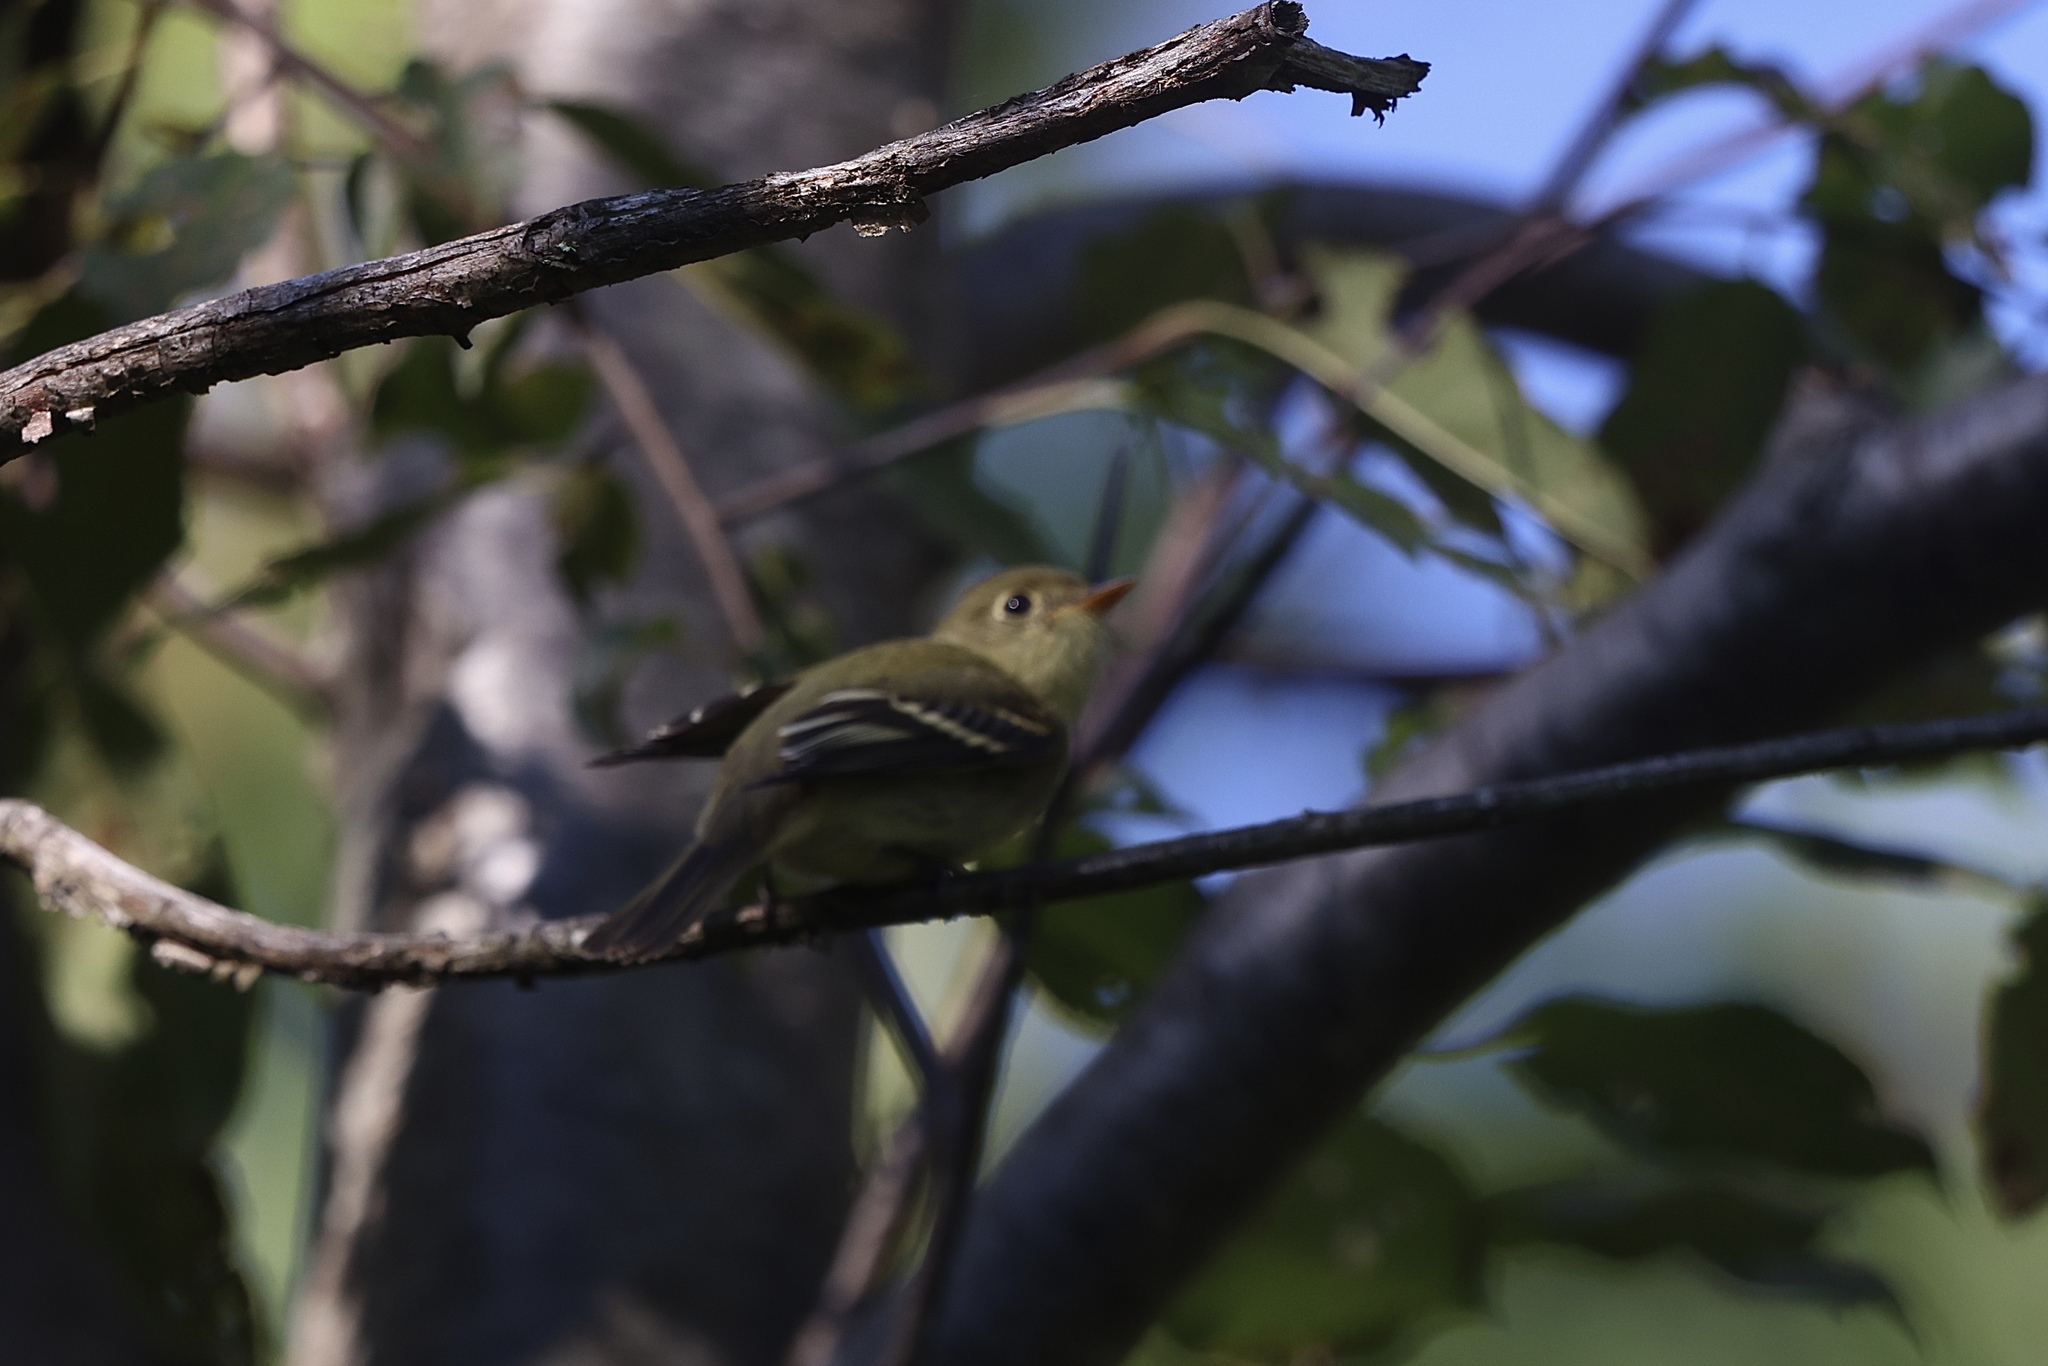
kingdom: Animalia
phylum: Chordata
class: Aves
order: Passeriformes
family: Tyrannidae
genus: Empidonax
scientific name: Empidonax flaviventris
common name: Yellow-bellied flycatcher
